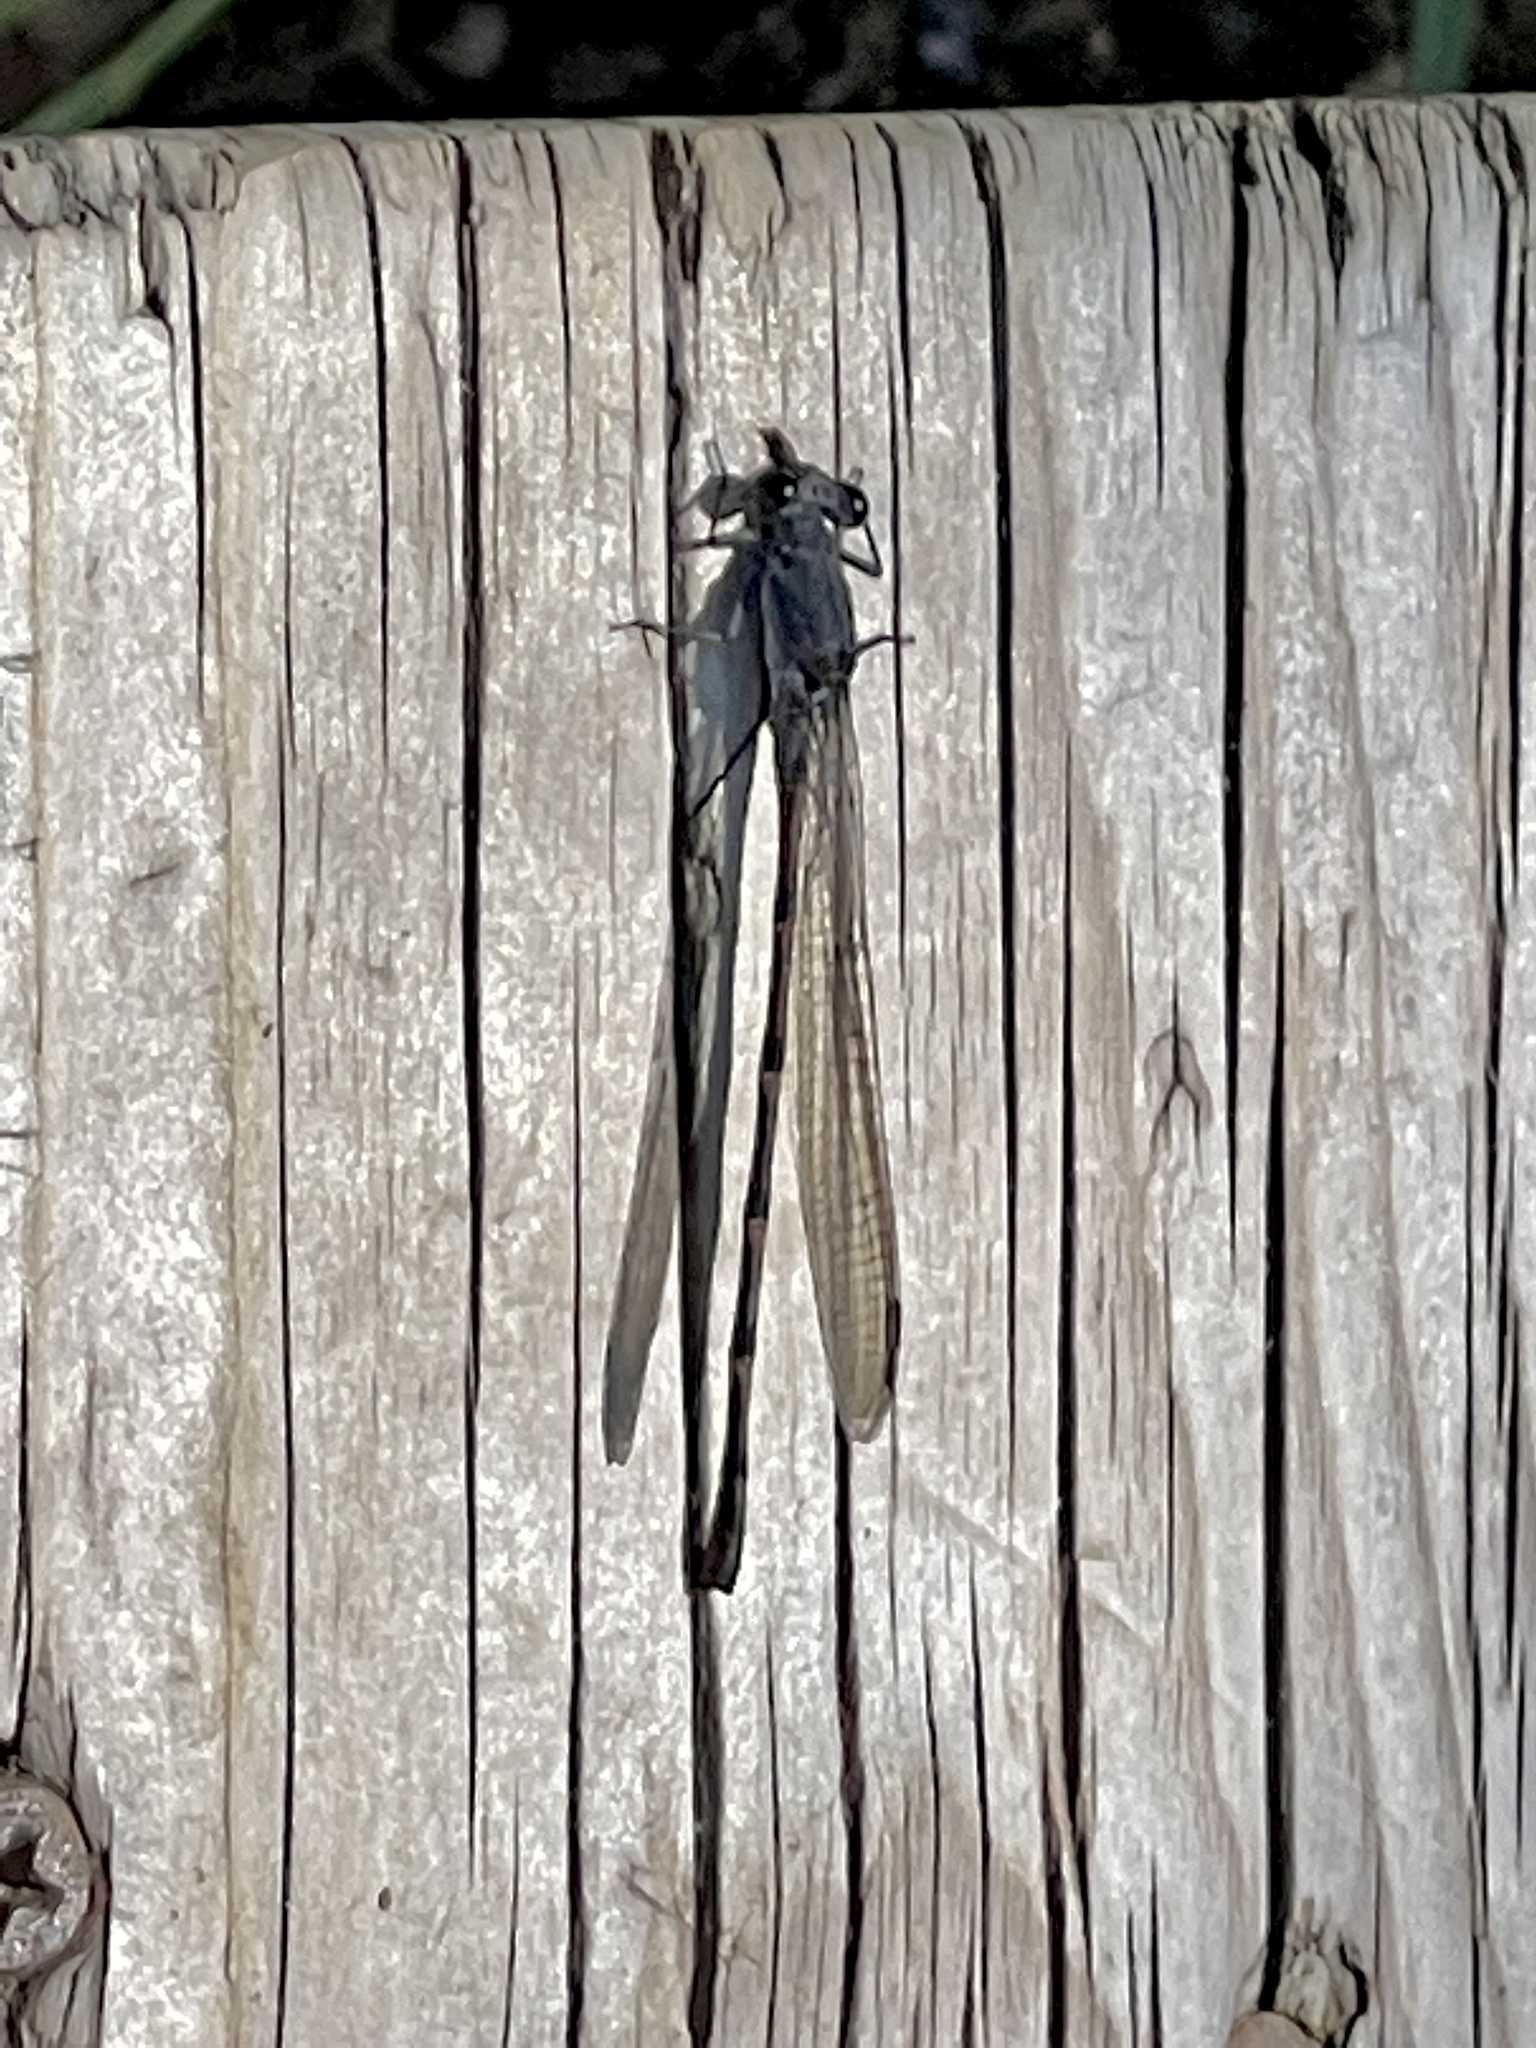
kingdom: Animalia
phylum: Arthropoda
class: Insecta
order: Odonata
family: Coenagrionidae
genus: Argia
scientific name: Argia lugens
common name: Sooty dancer
